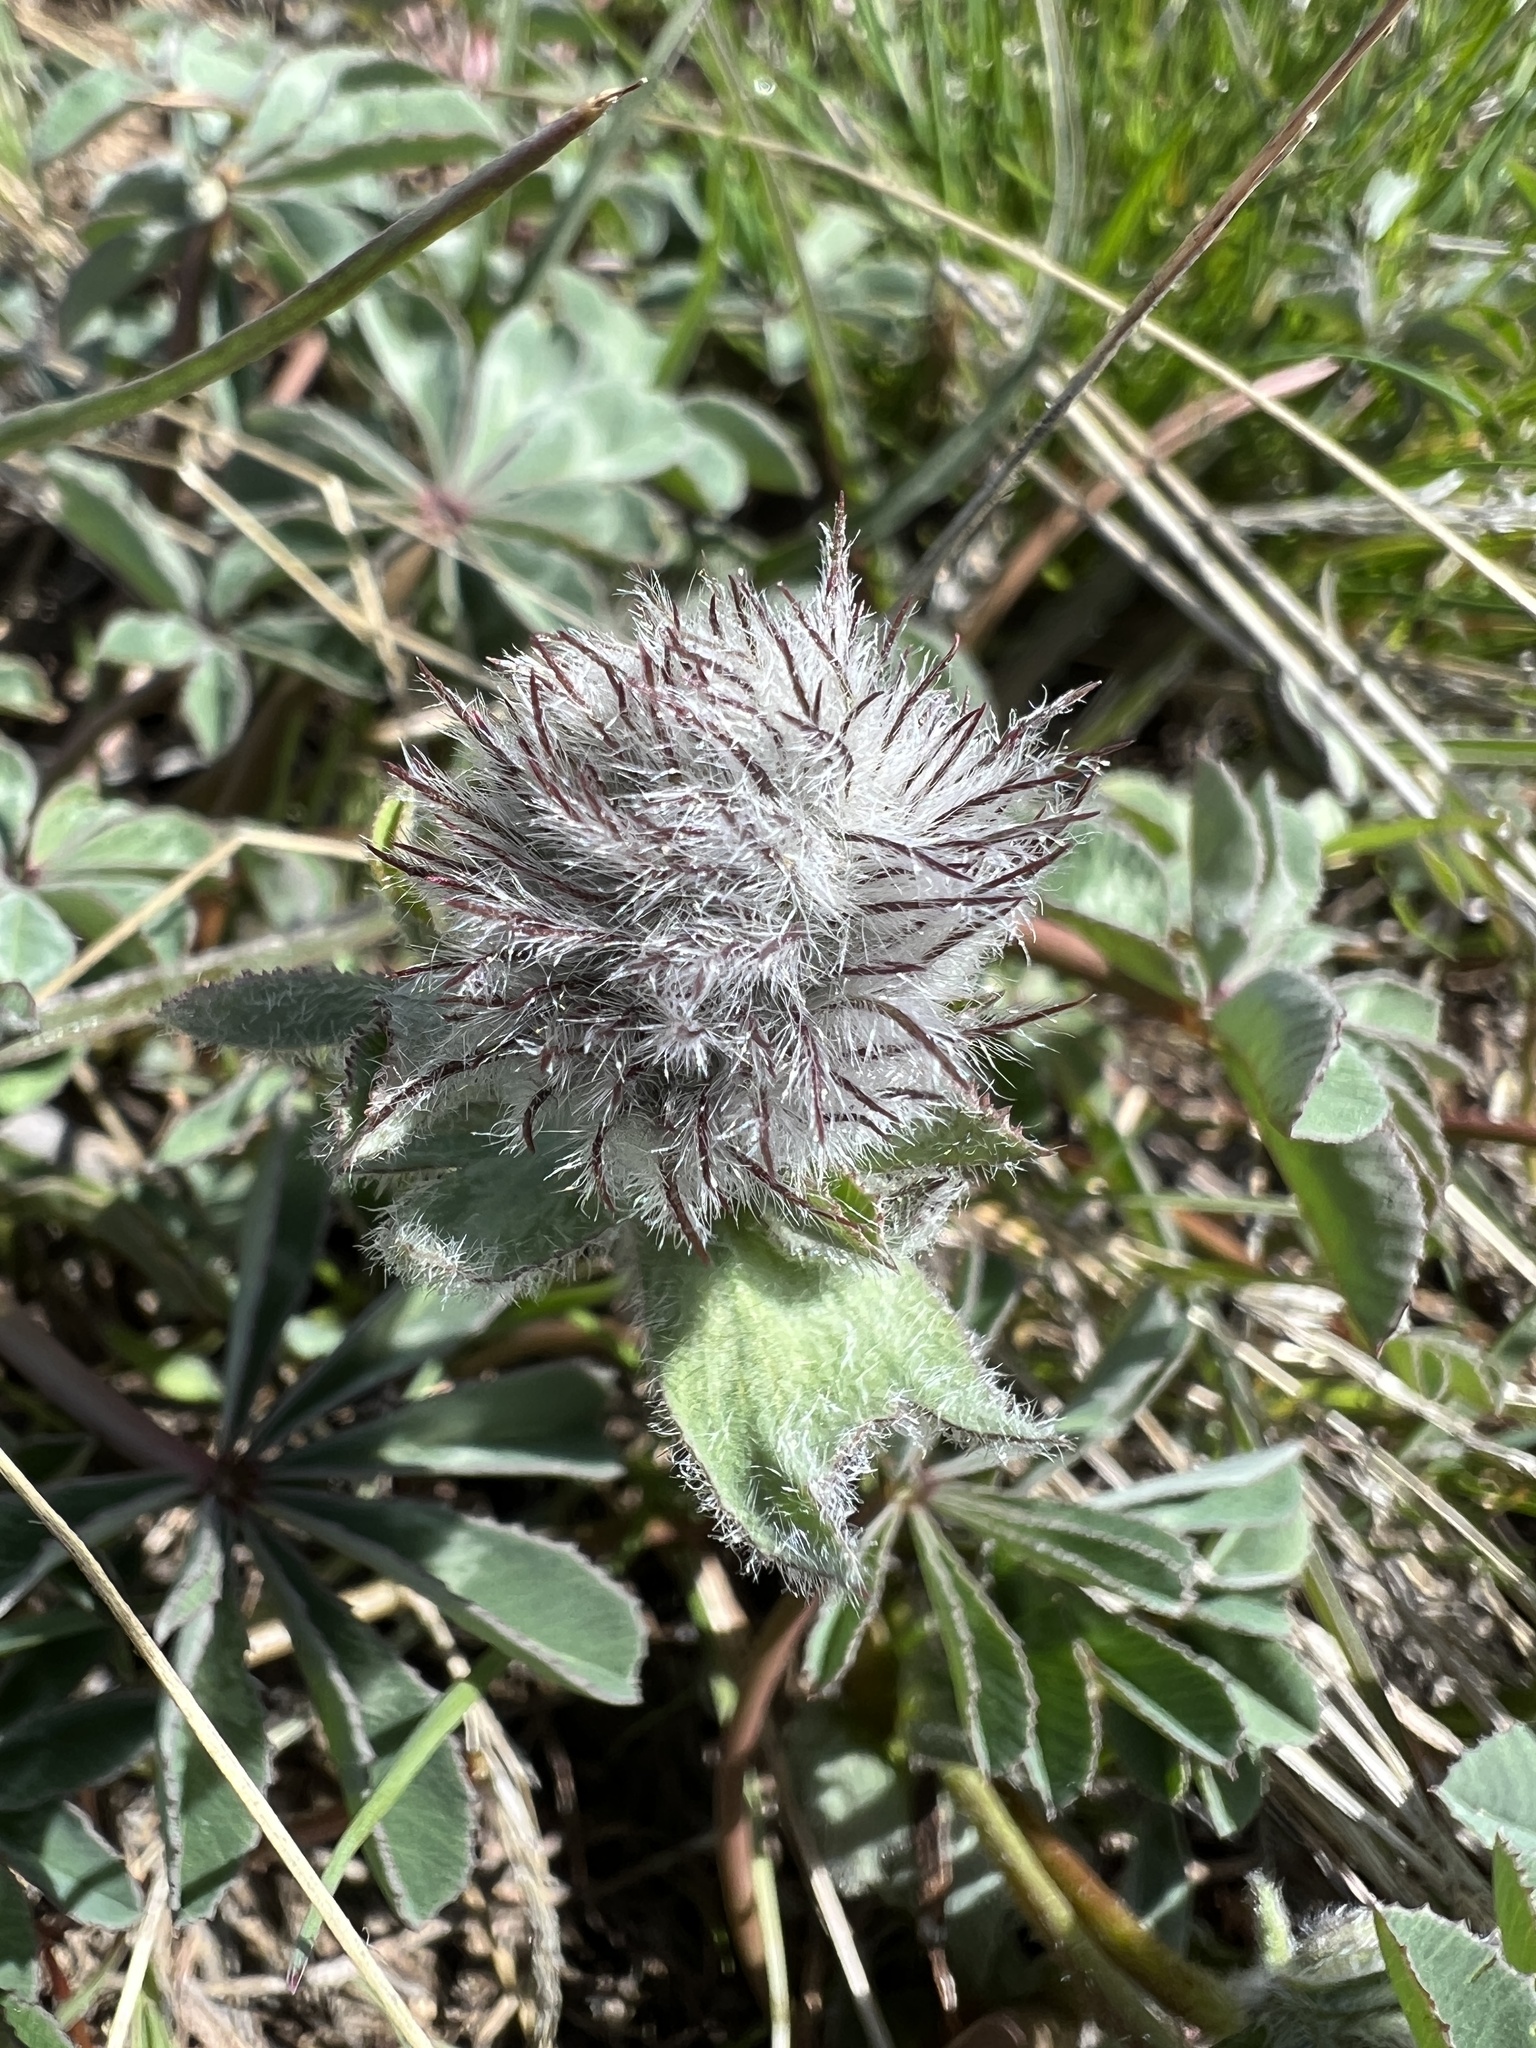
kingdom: Plantae
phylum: Tracheophyta
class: Magnoliopsida
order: Fabales
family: Fabaceae
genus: Trifolium
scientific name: Trifolium macrocephalum
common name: Large-head clover
